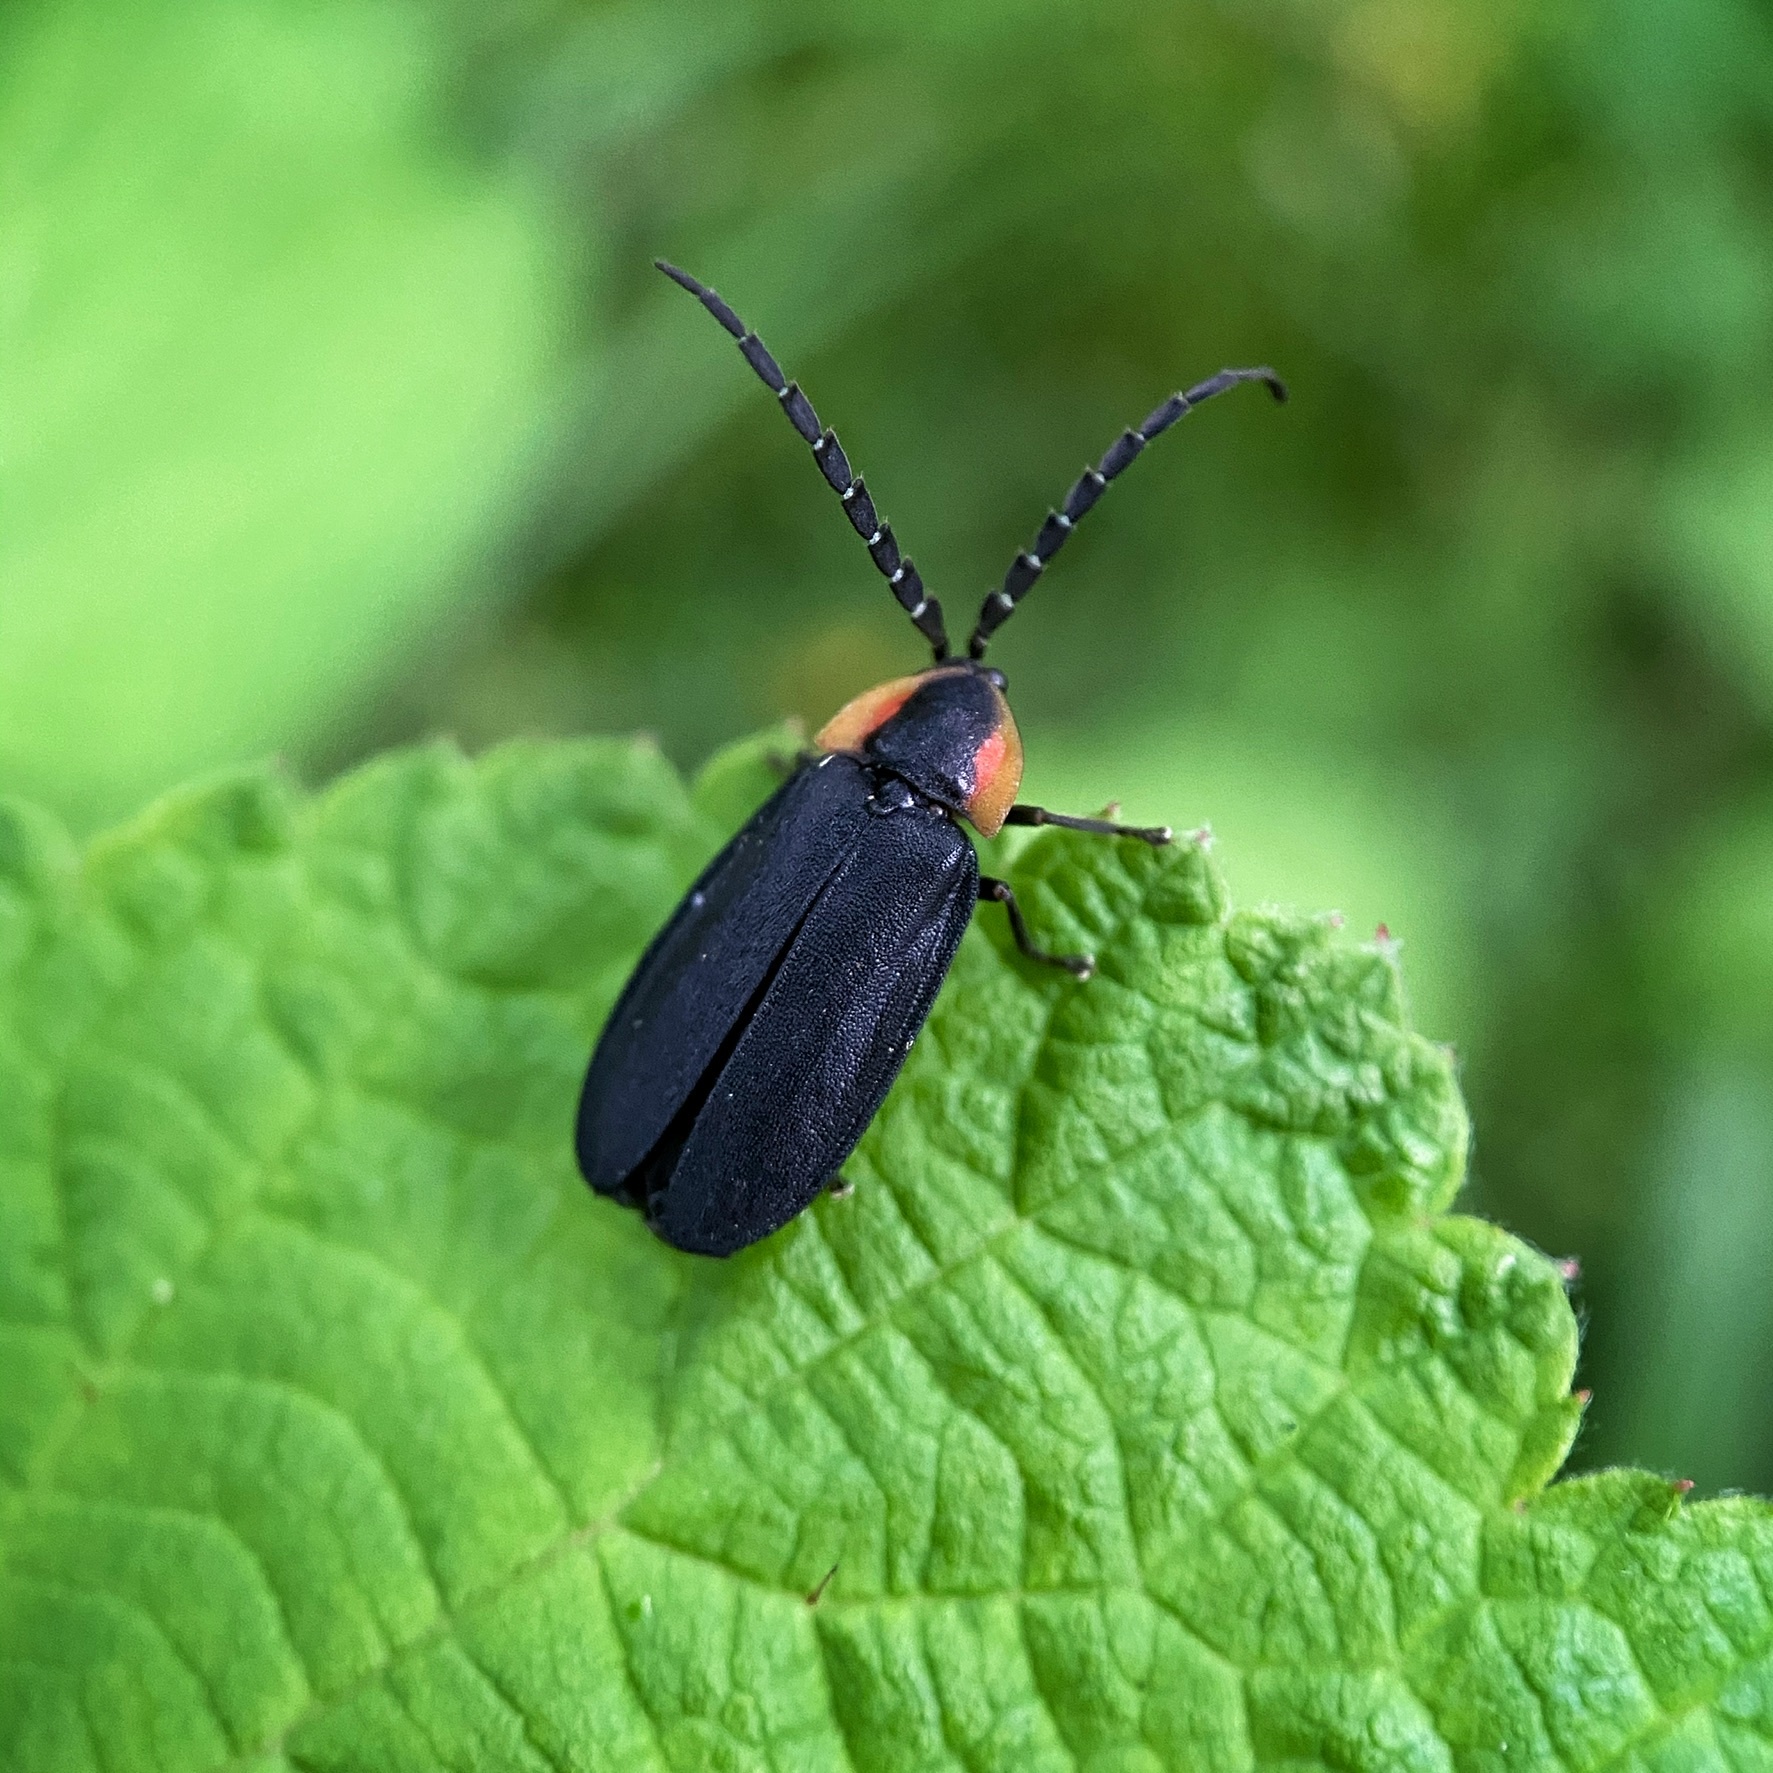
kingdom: Animalia
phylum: Arthropoda
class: Insecta
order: Coleoptera
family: Lampyridae
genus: Lucidota
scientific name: Lucidota atra
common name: Black firefly
